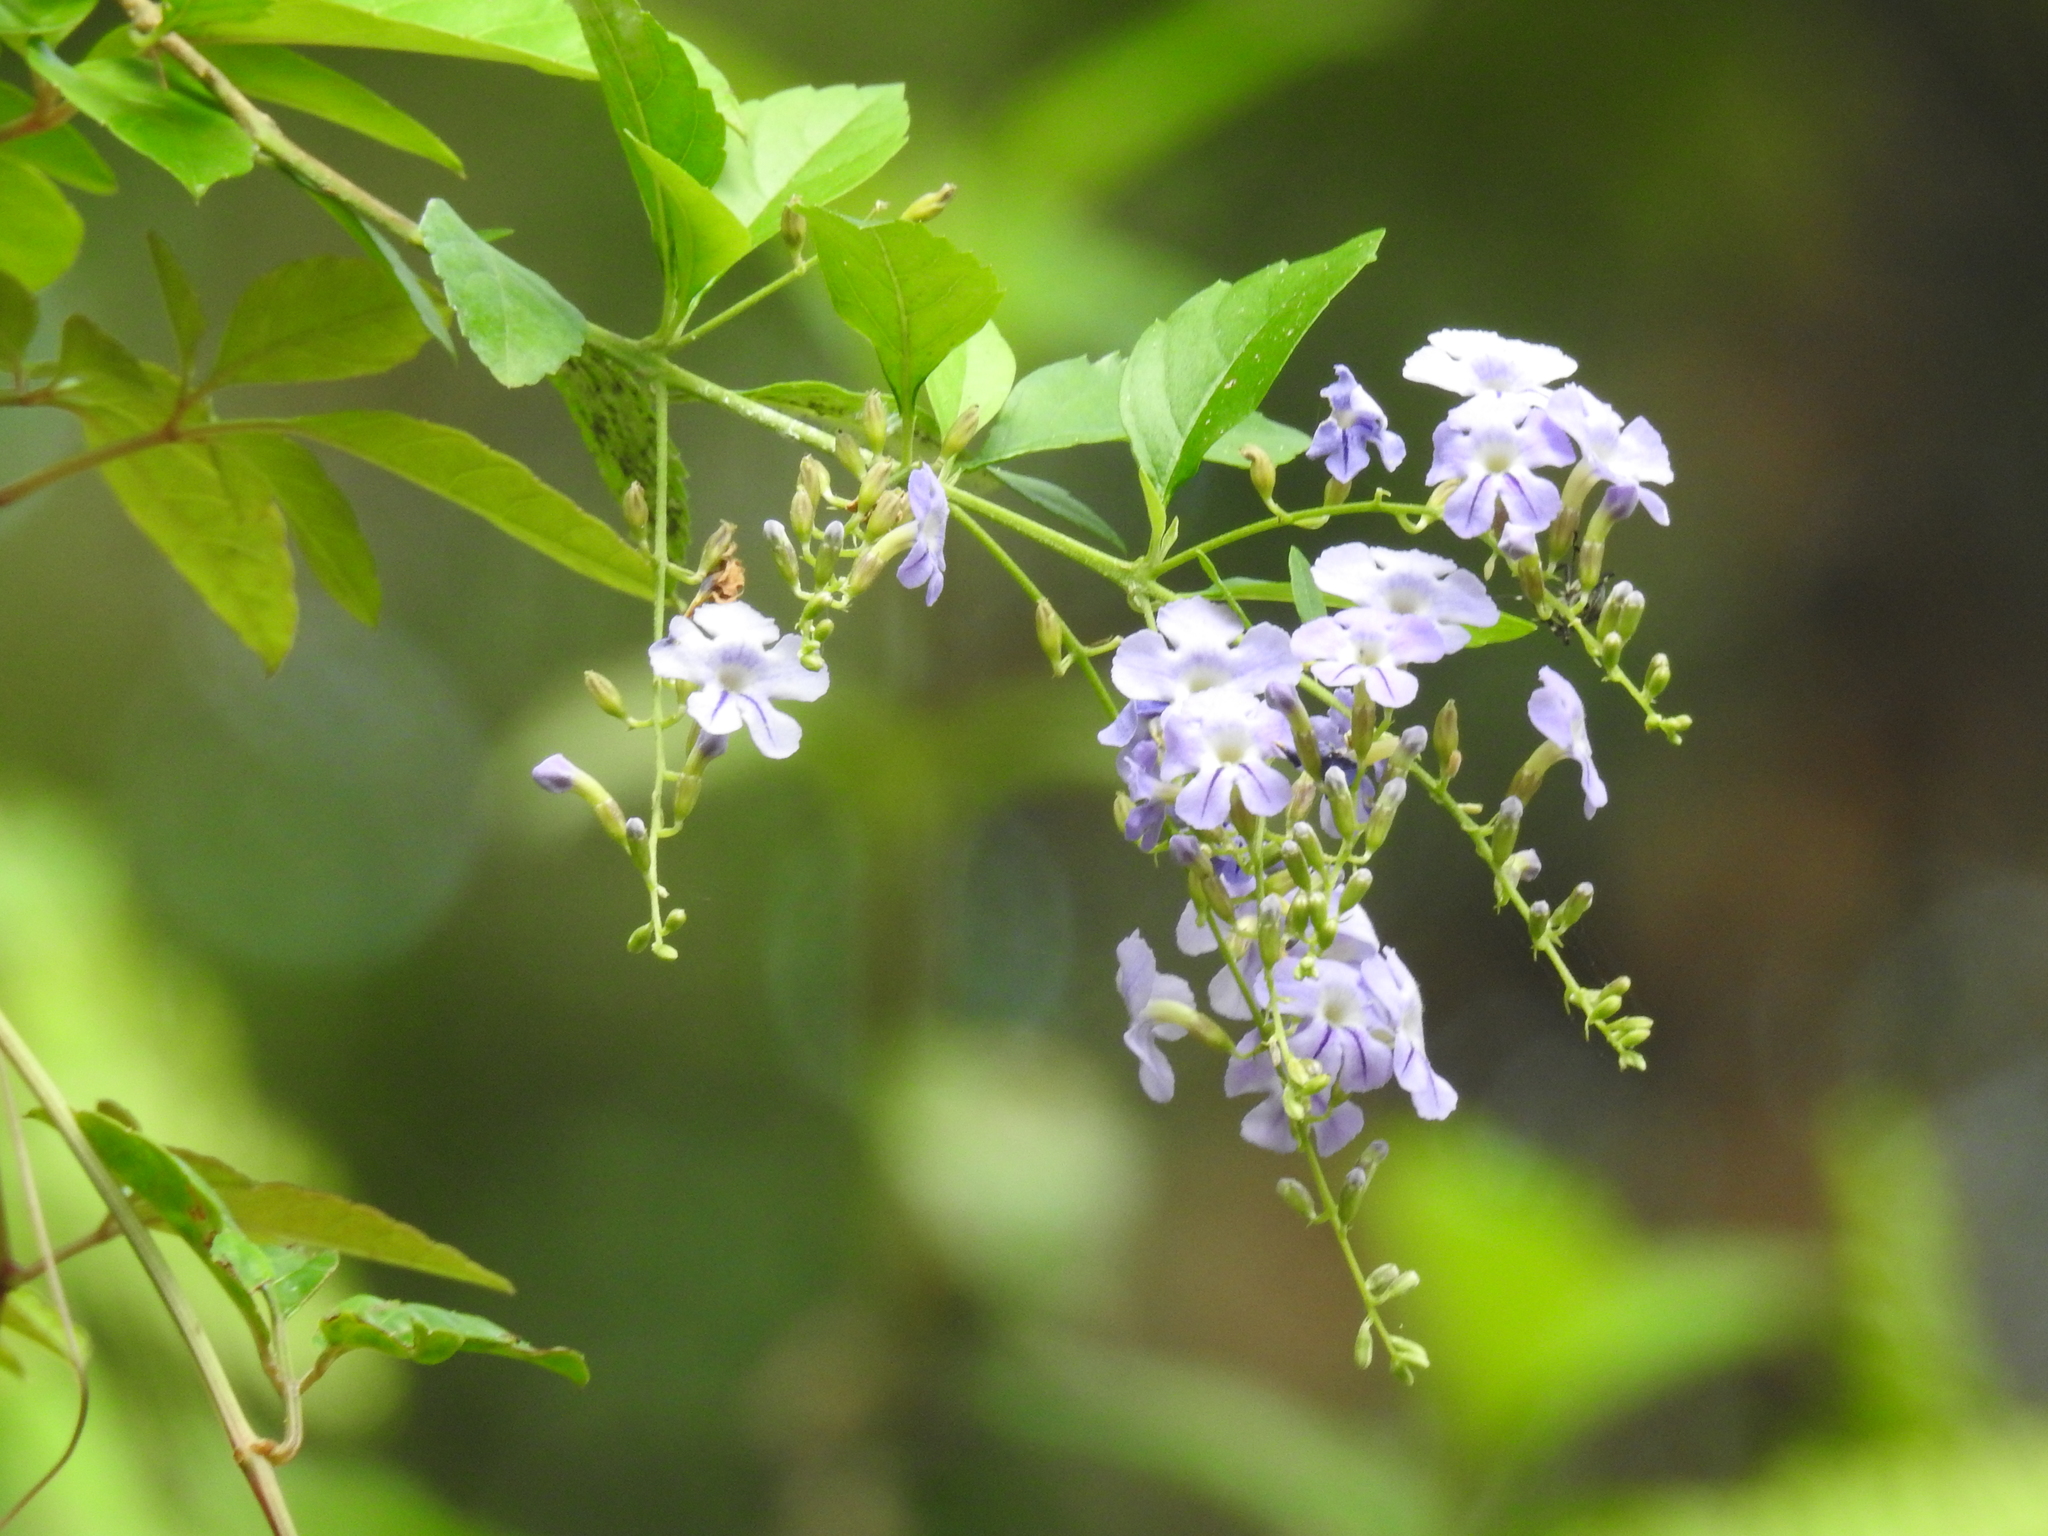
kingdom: Plantae
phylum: Tracheophyta
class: Magnoliopsida
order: Lamiales
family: Verbenaceae
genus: Duranta
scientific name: Duranta erecta
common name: Golden dewdrops
